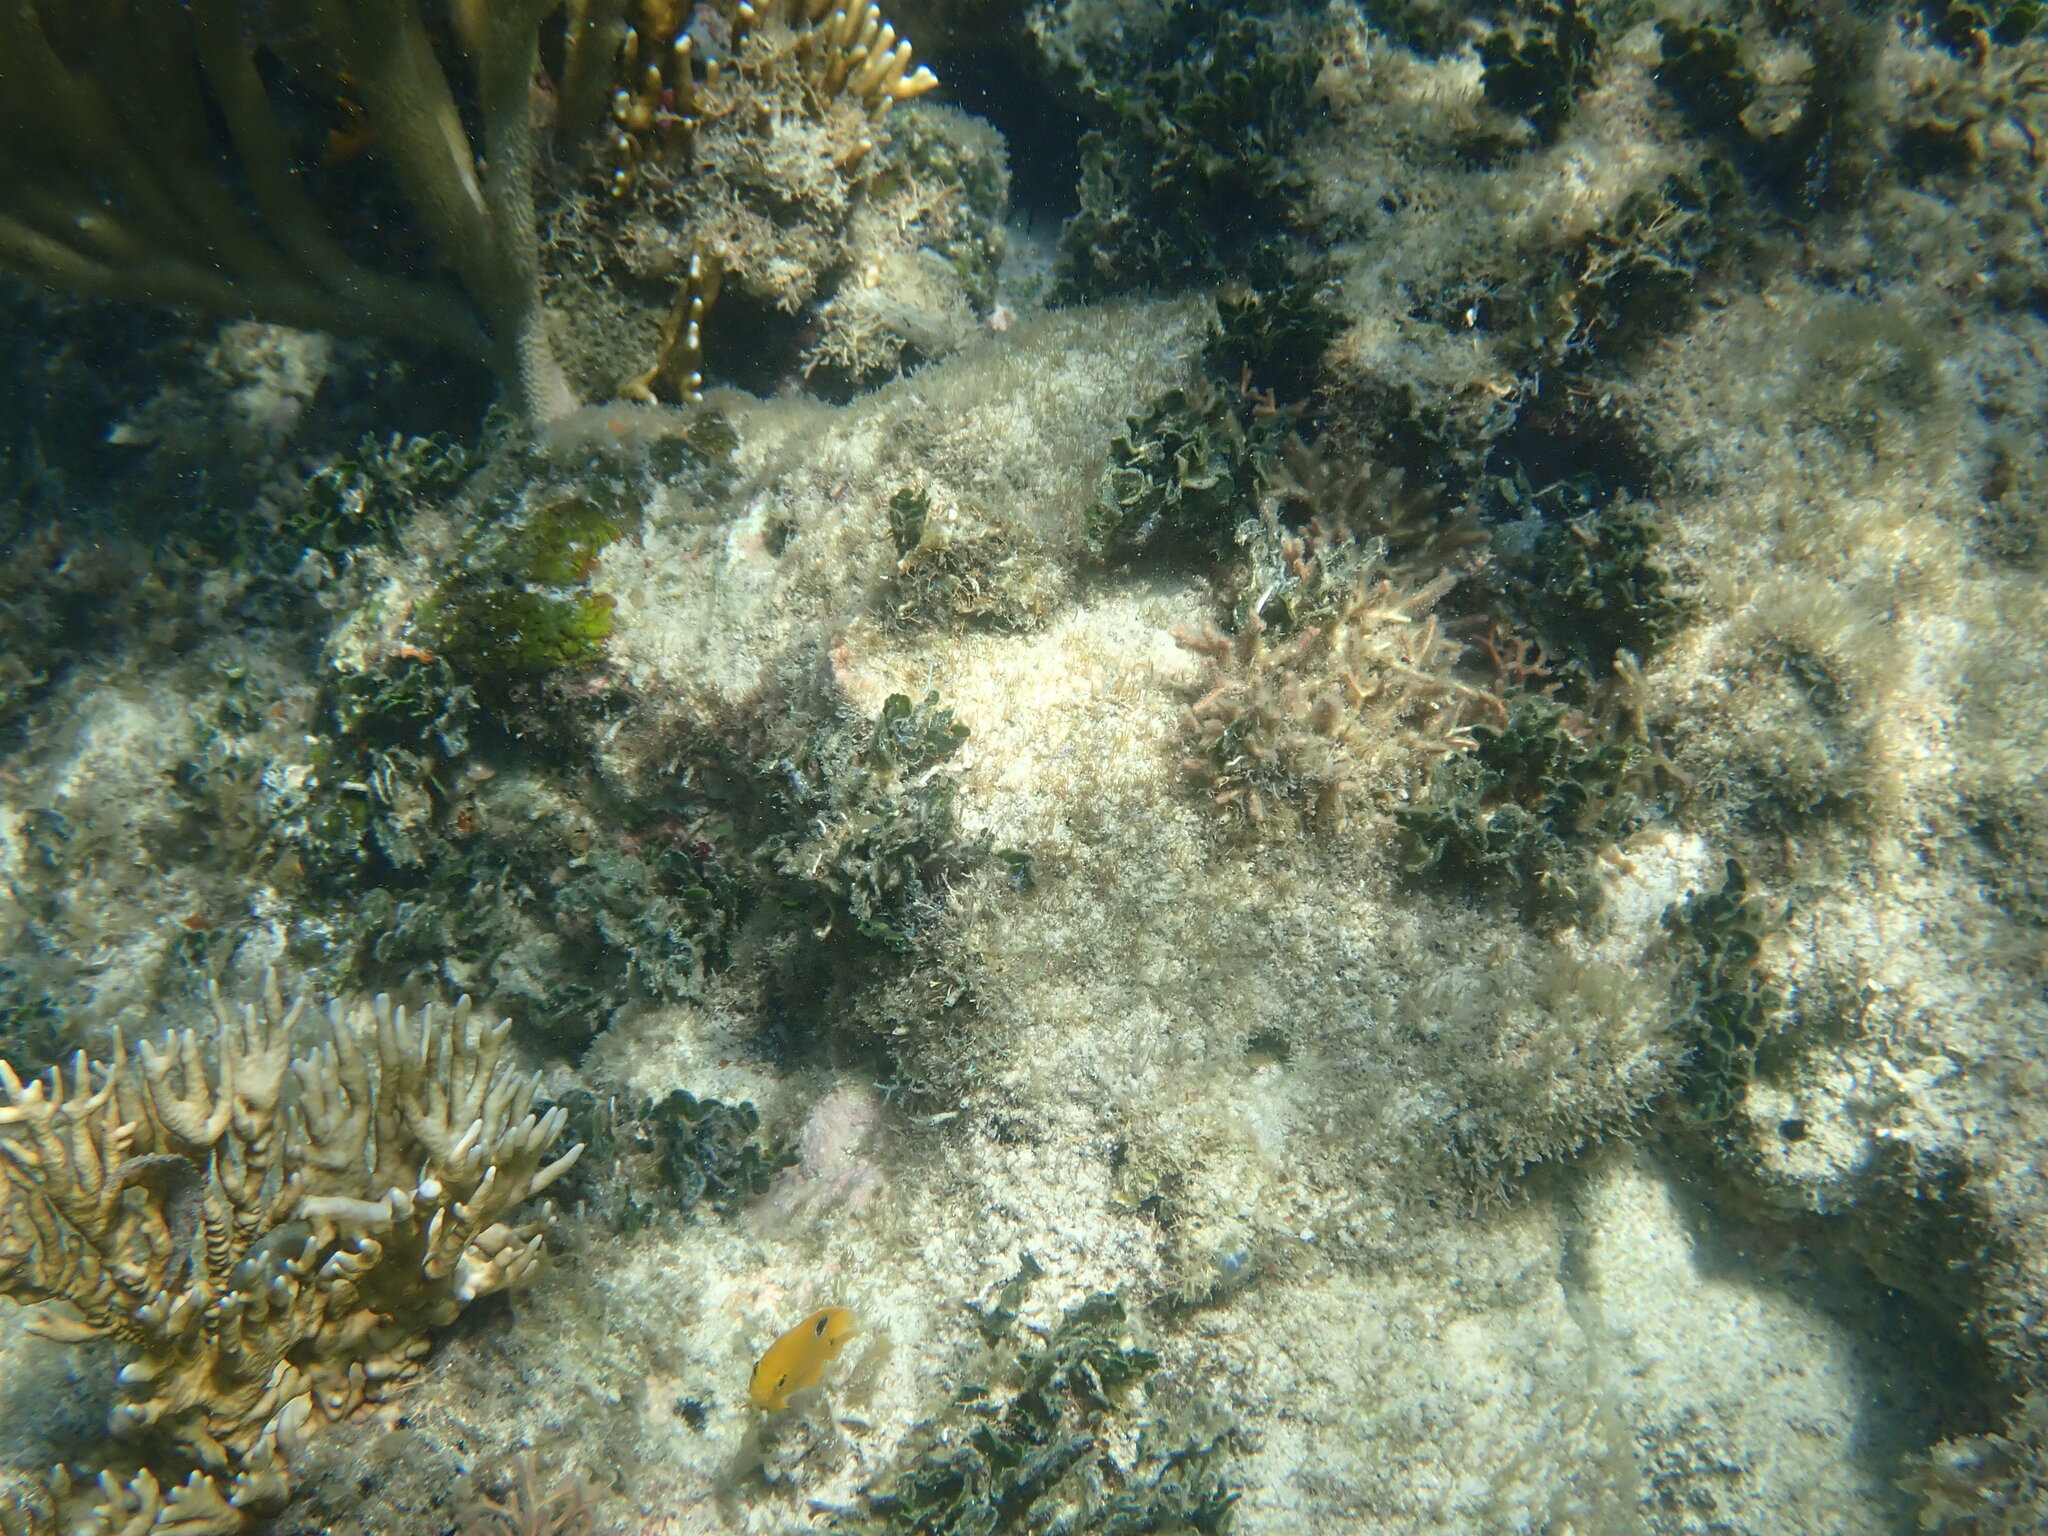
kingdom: Animalia
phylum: Chordata
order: Perciformes
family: Pomacentridae
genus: Stegastes
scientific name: Stegastes planifrons
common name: Threespot damselfish
